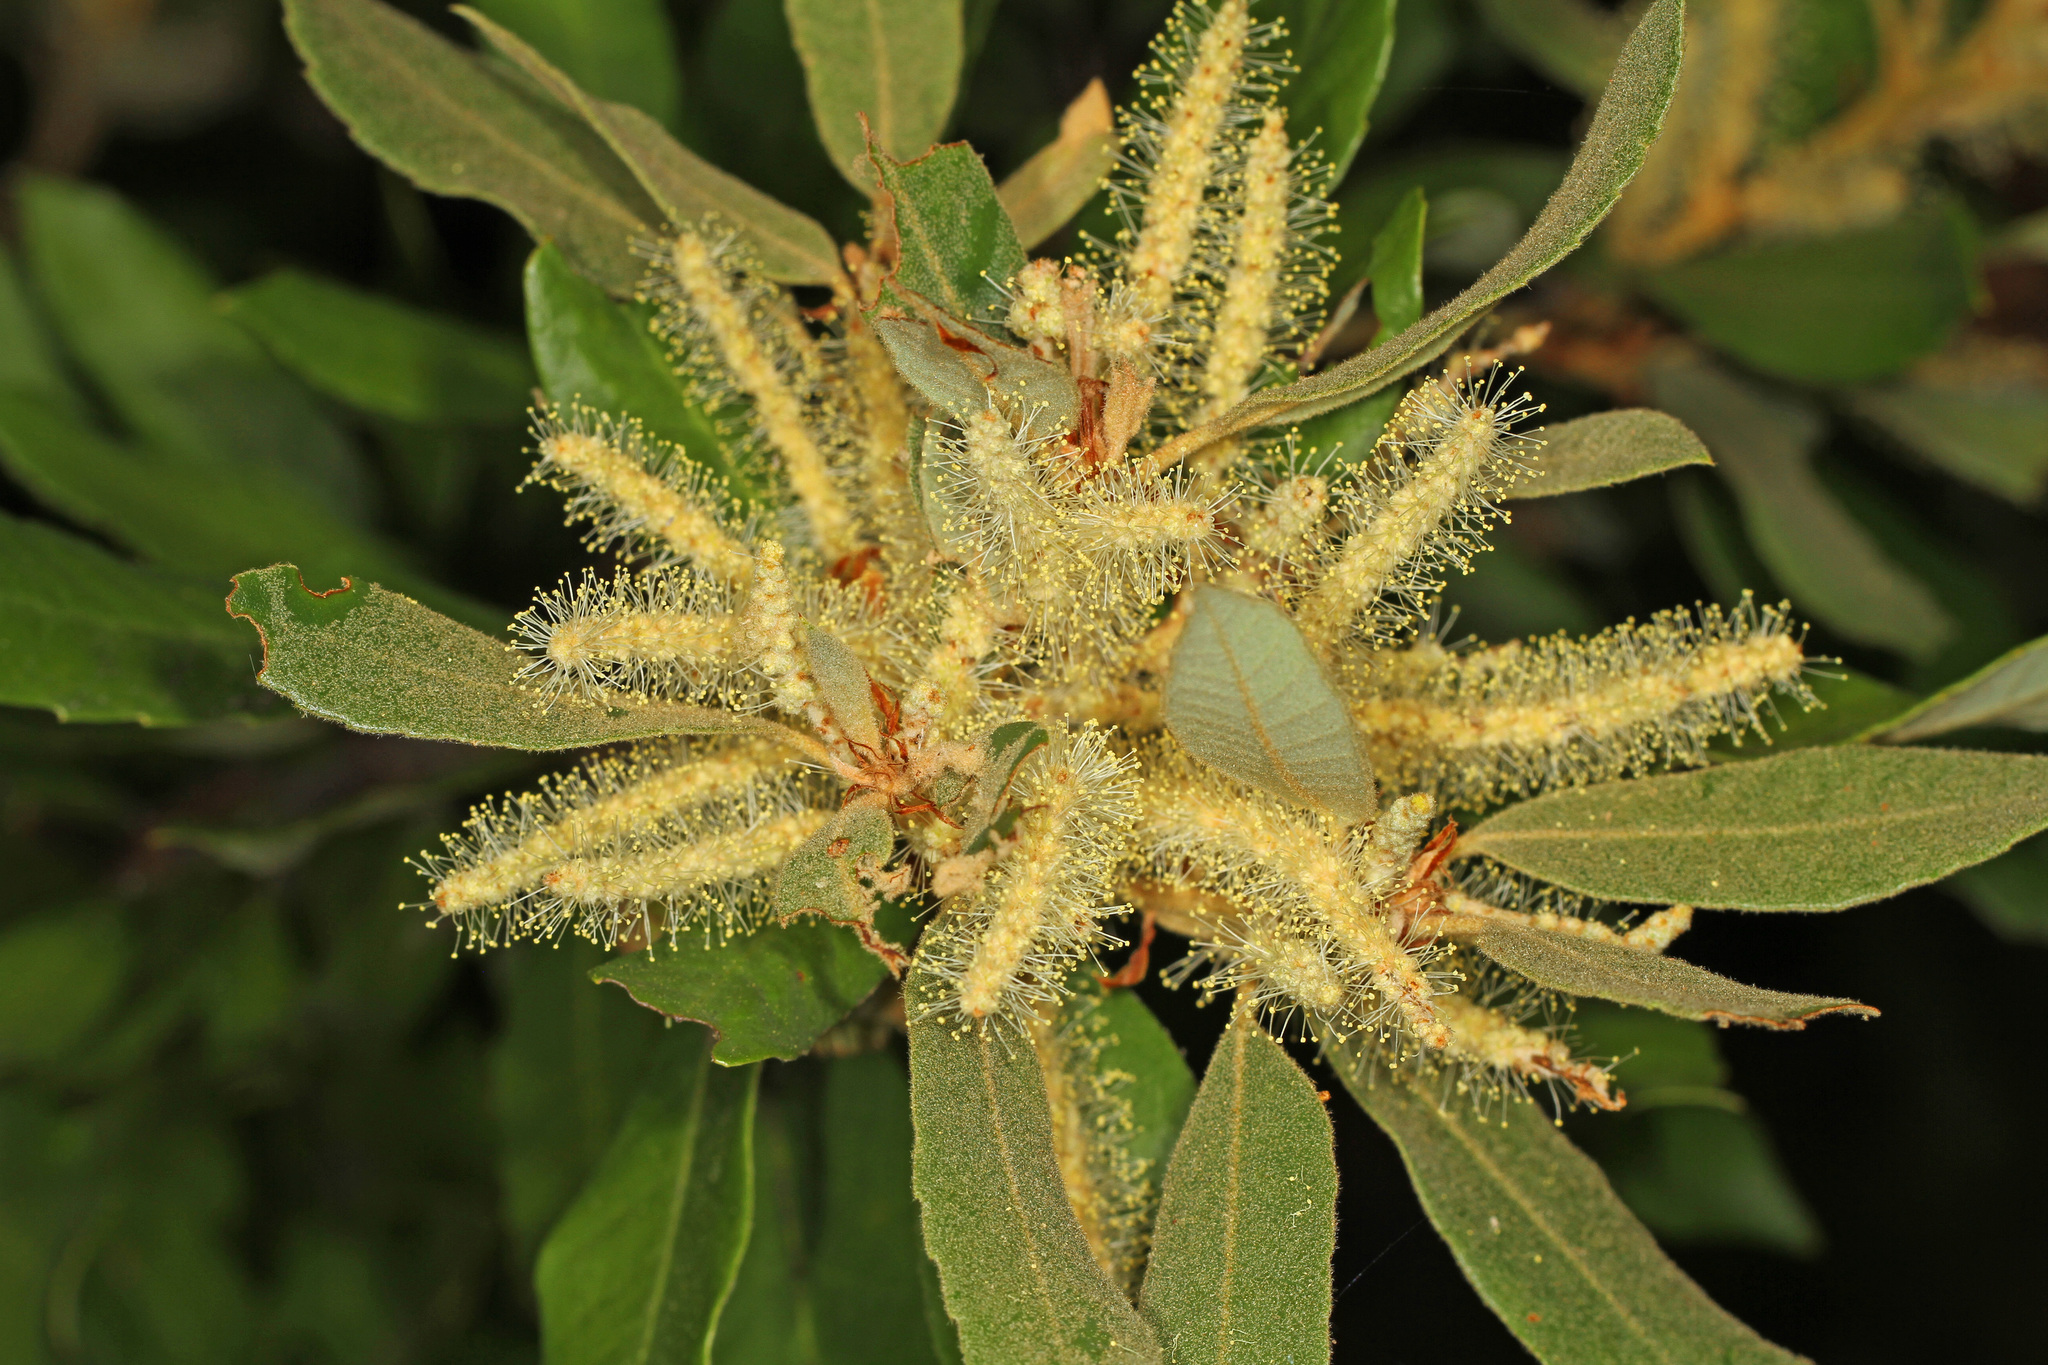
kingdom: Plantae
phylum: Tracheophyta
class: Magnoliopsida
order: Fagales
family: Fagaceae
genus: Notholithocarpus
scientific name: Notholithocarpus densiflorus
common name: Tan bark oak
